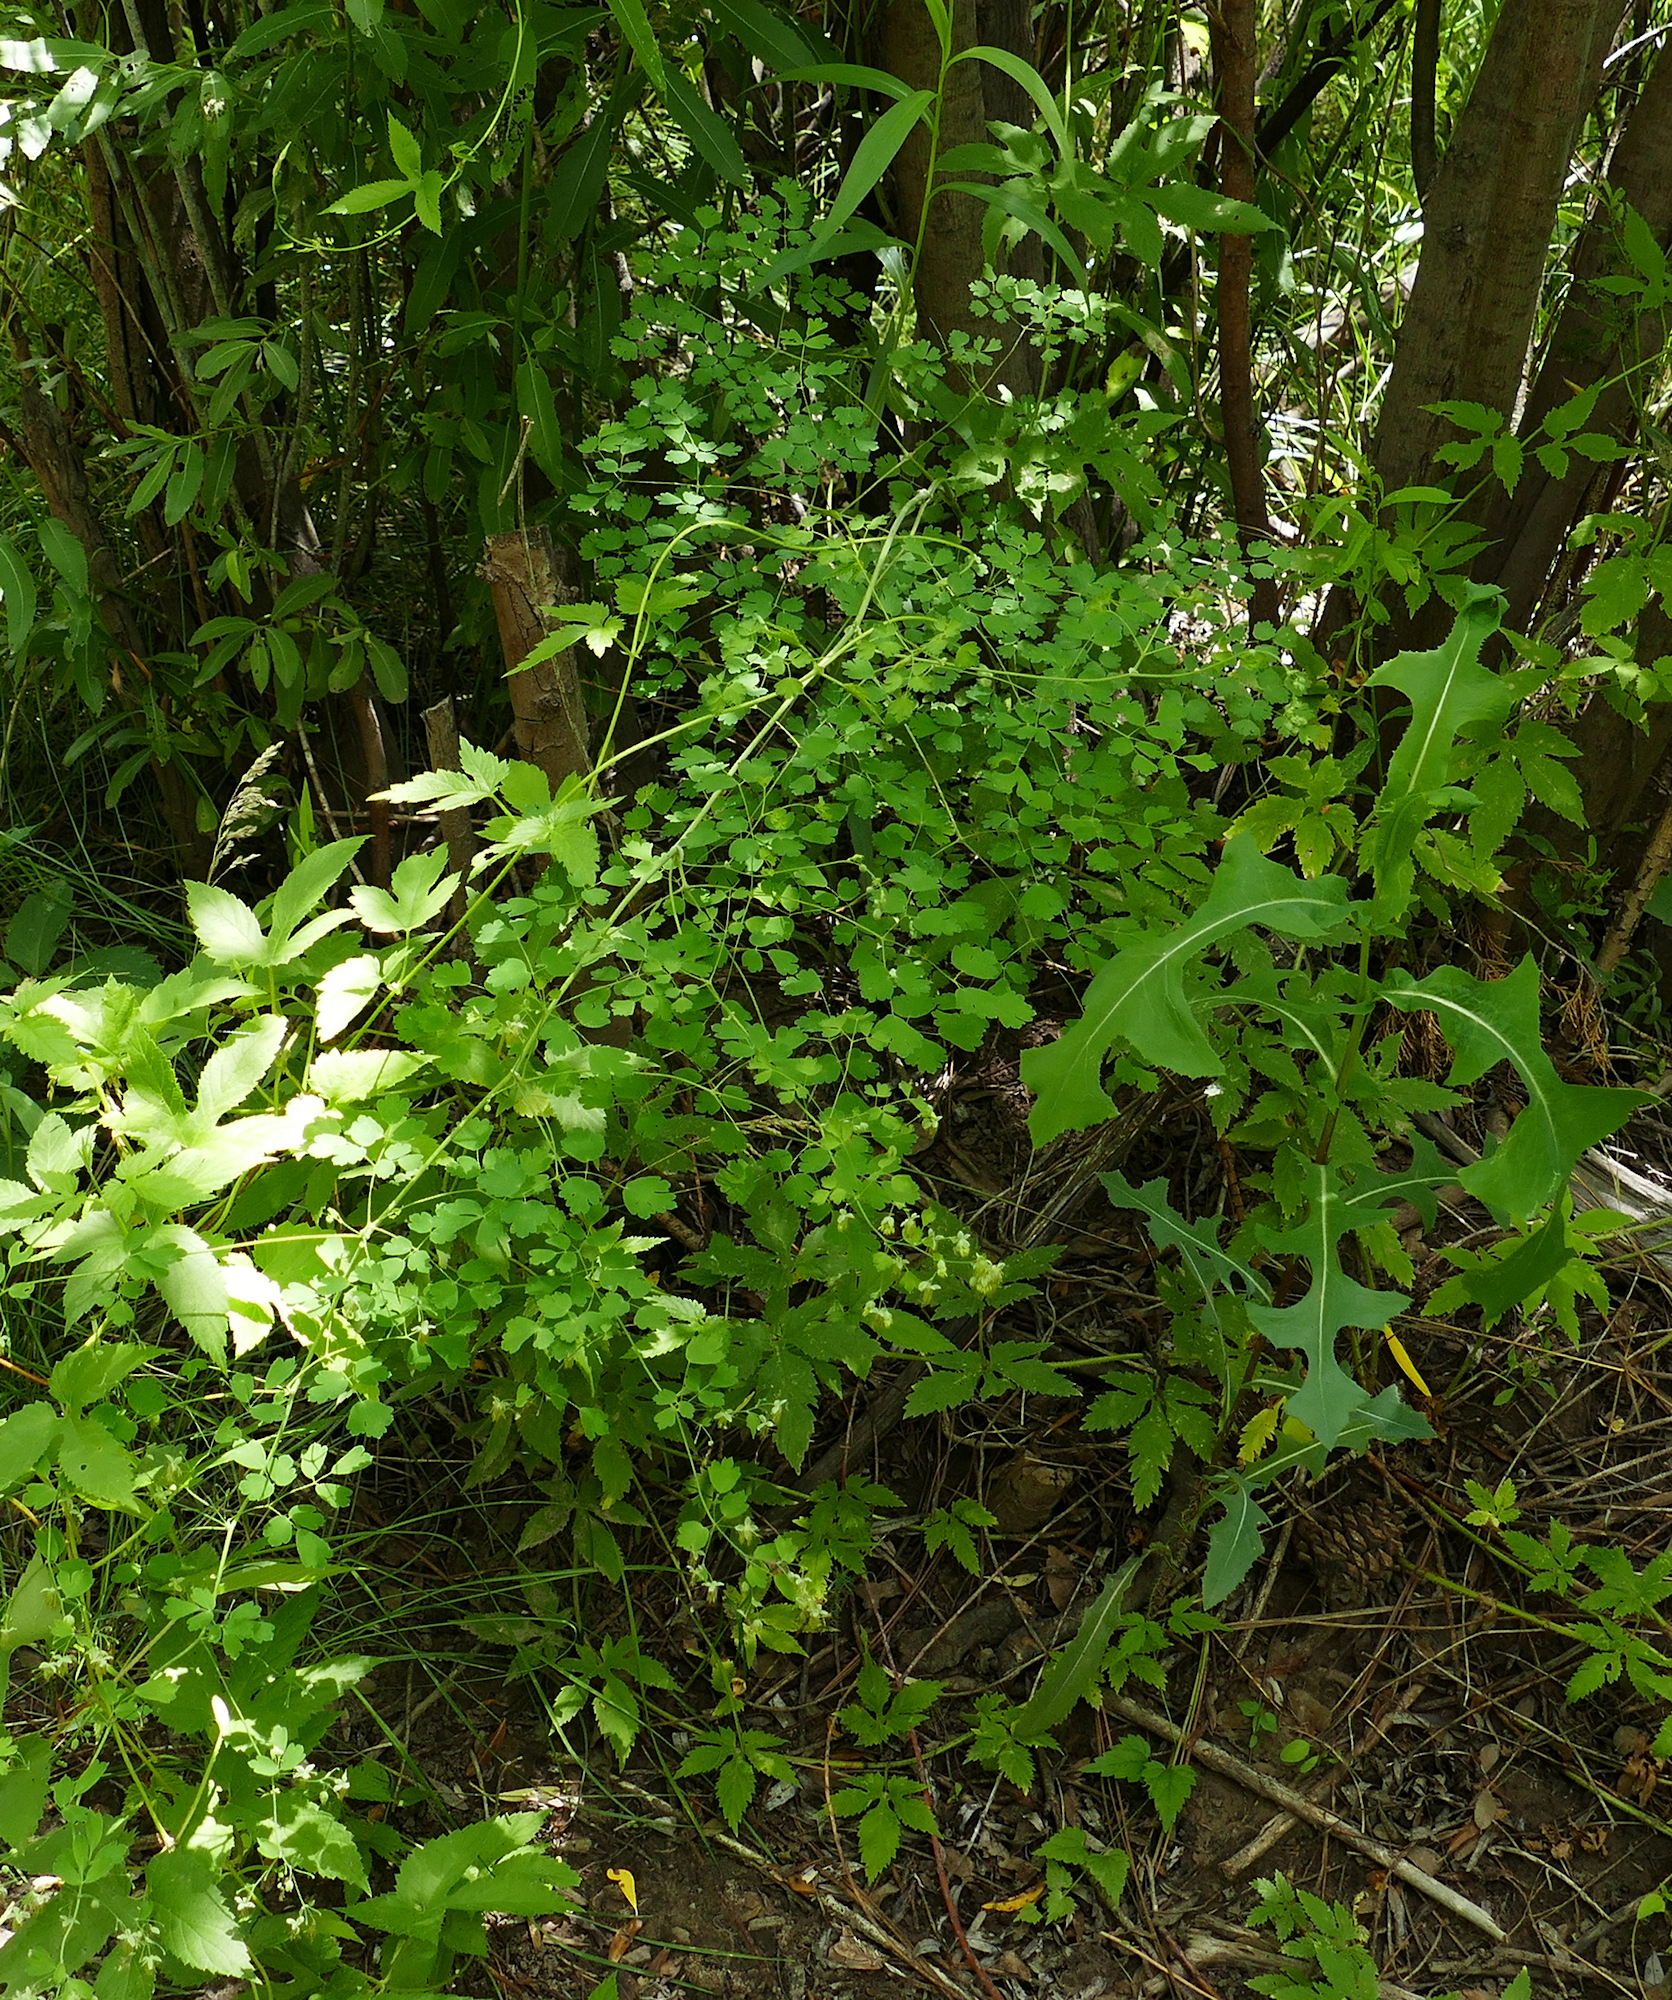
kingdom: Plantae
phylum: Tracheophyta
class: Magnoliopsida
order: Ranunculales
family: Ranunculaceae
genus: Thalictrum
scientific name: Thalictrum fendleri
